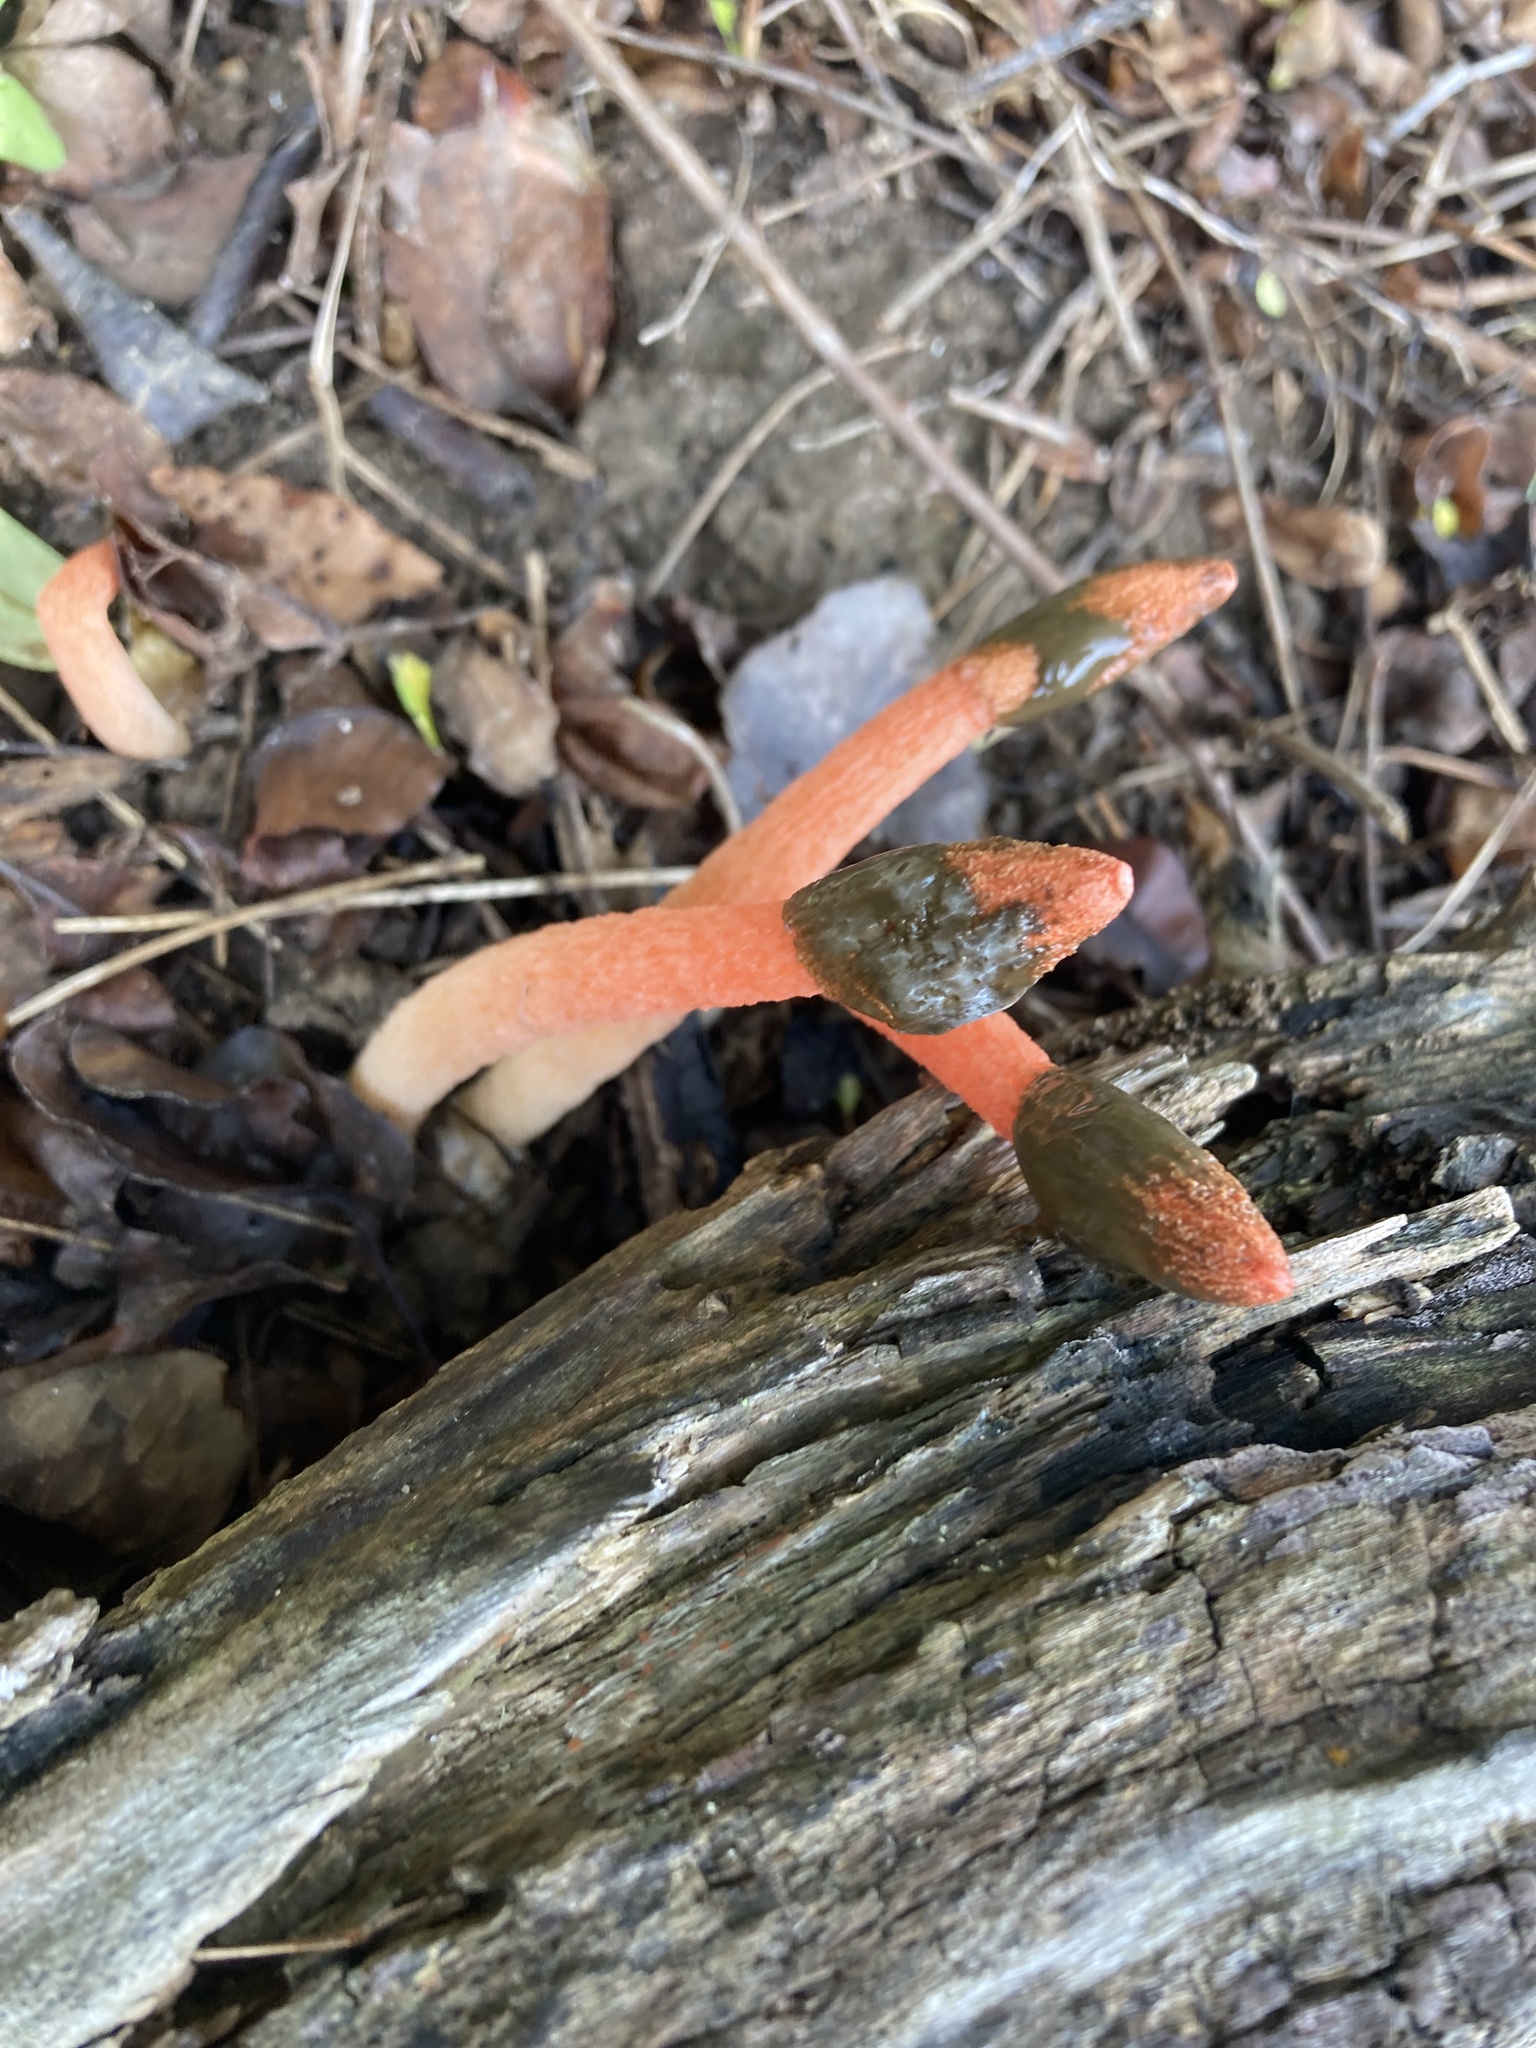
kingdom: Fungi
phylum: Basidiomycota
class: Agaricomycetes
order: Phallales
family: Phallaceae
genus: Phallus
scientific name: Phallus rugulosus
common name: Wrinkly stinkhorn
